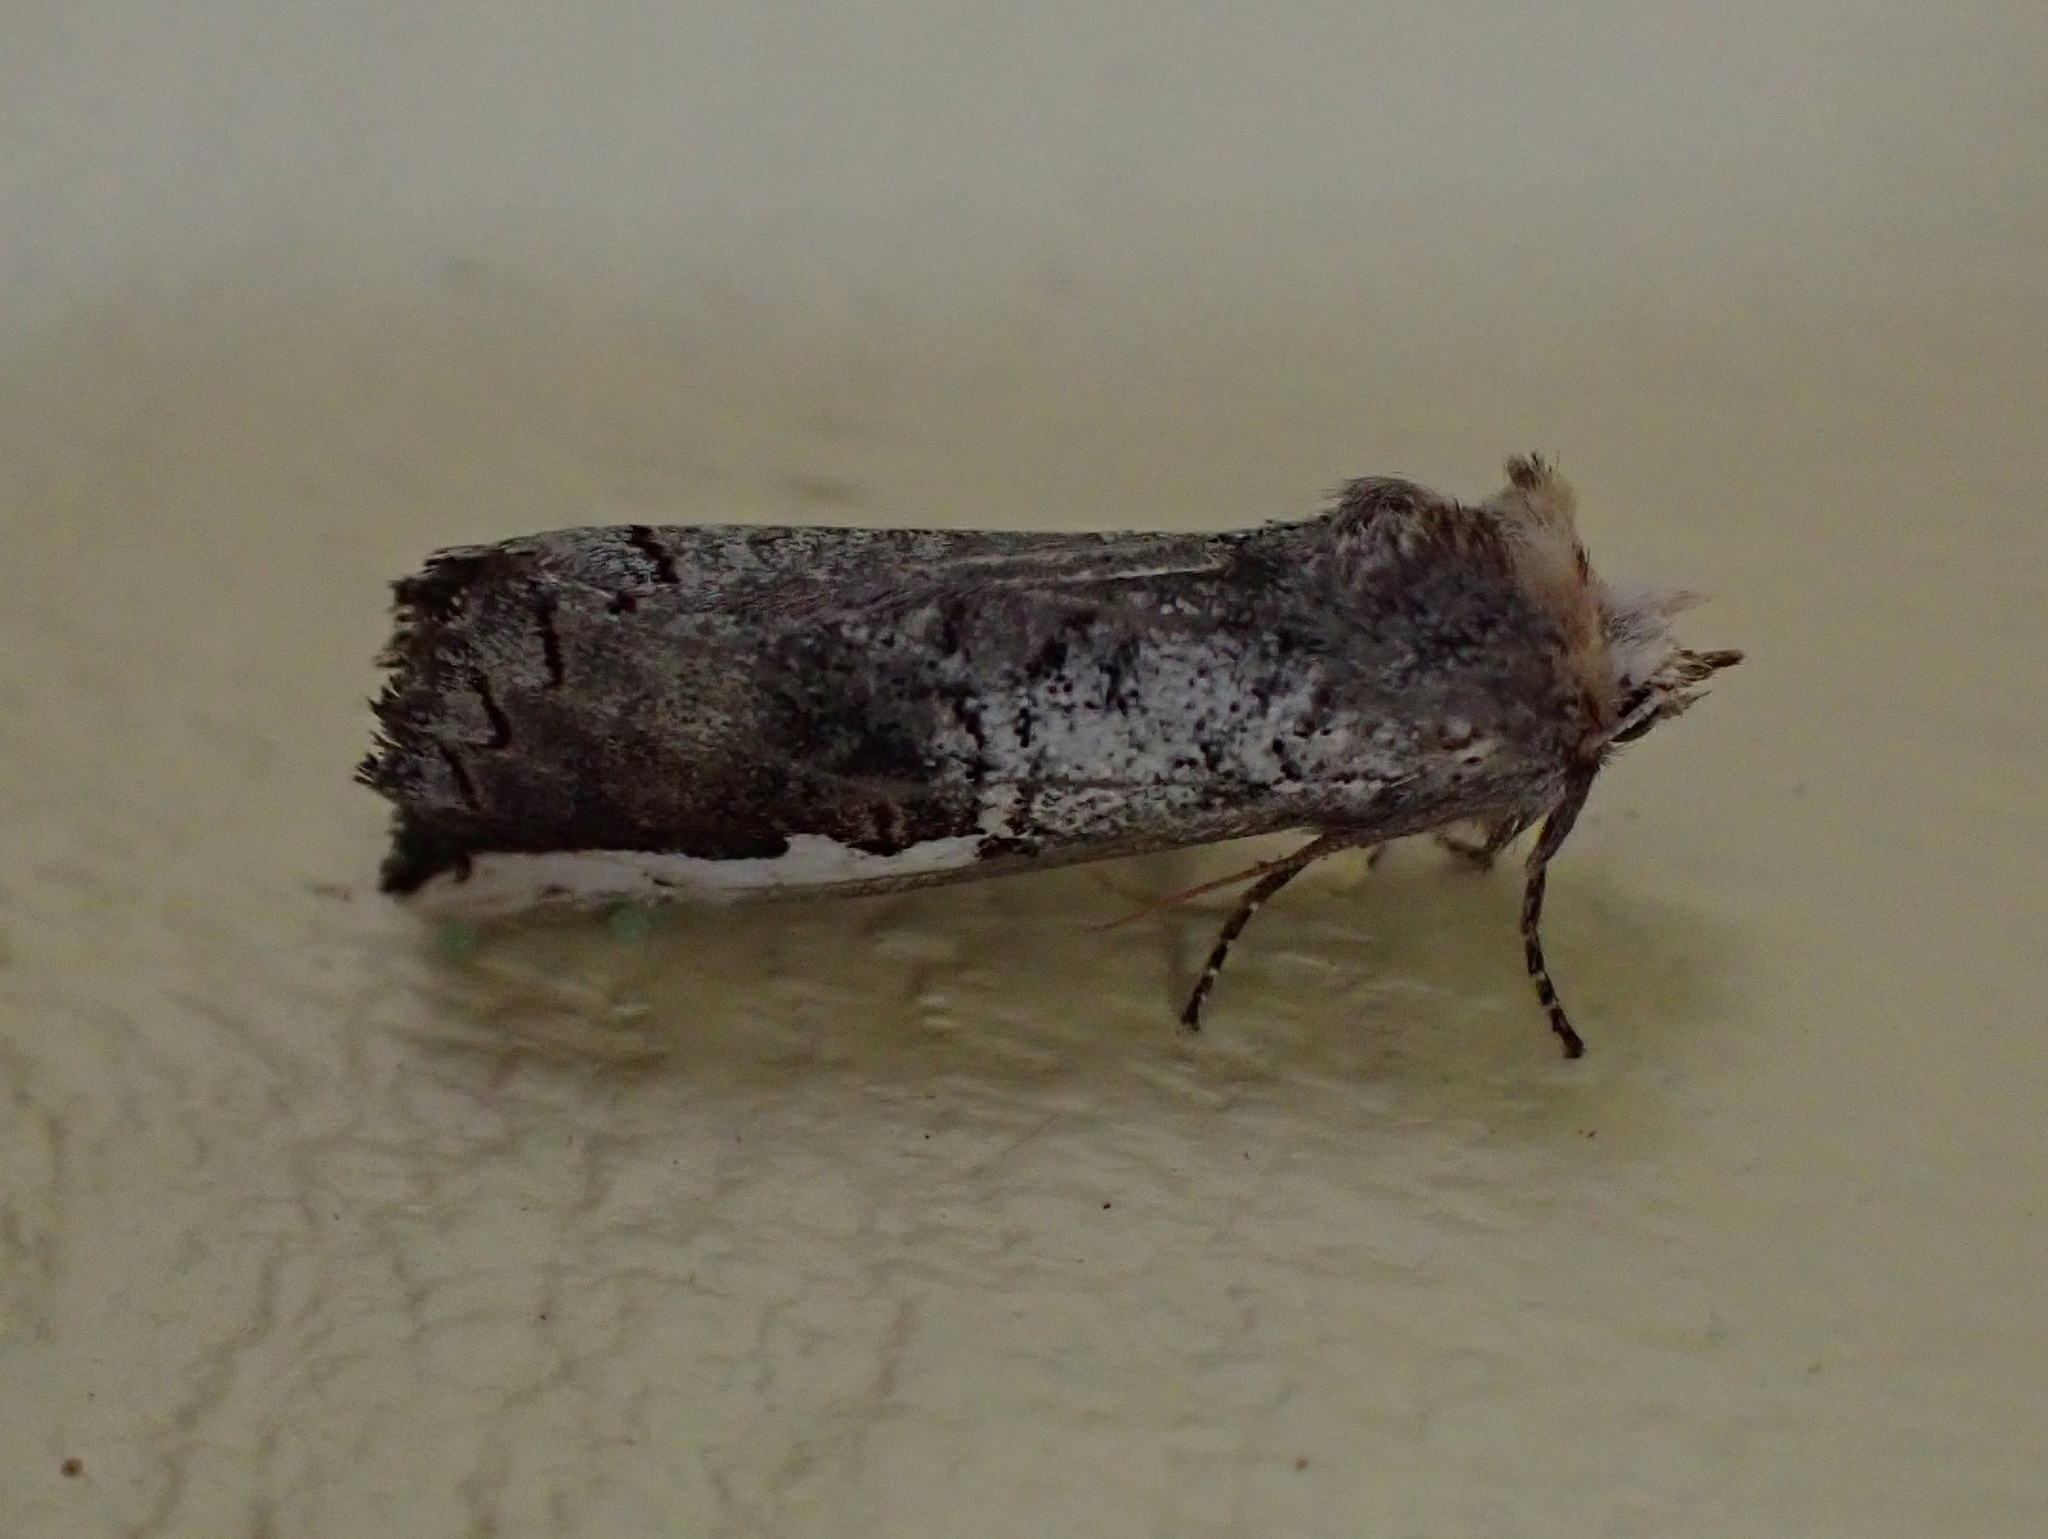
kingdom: Animalia
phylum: Arthropoda
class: Insecta
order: Lepidoptera
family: Notodontidae
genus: Symmerista
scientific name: Symmerista albifrons
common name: White-headed prominent
